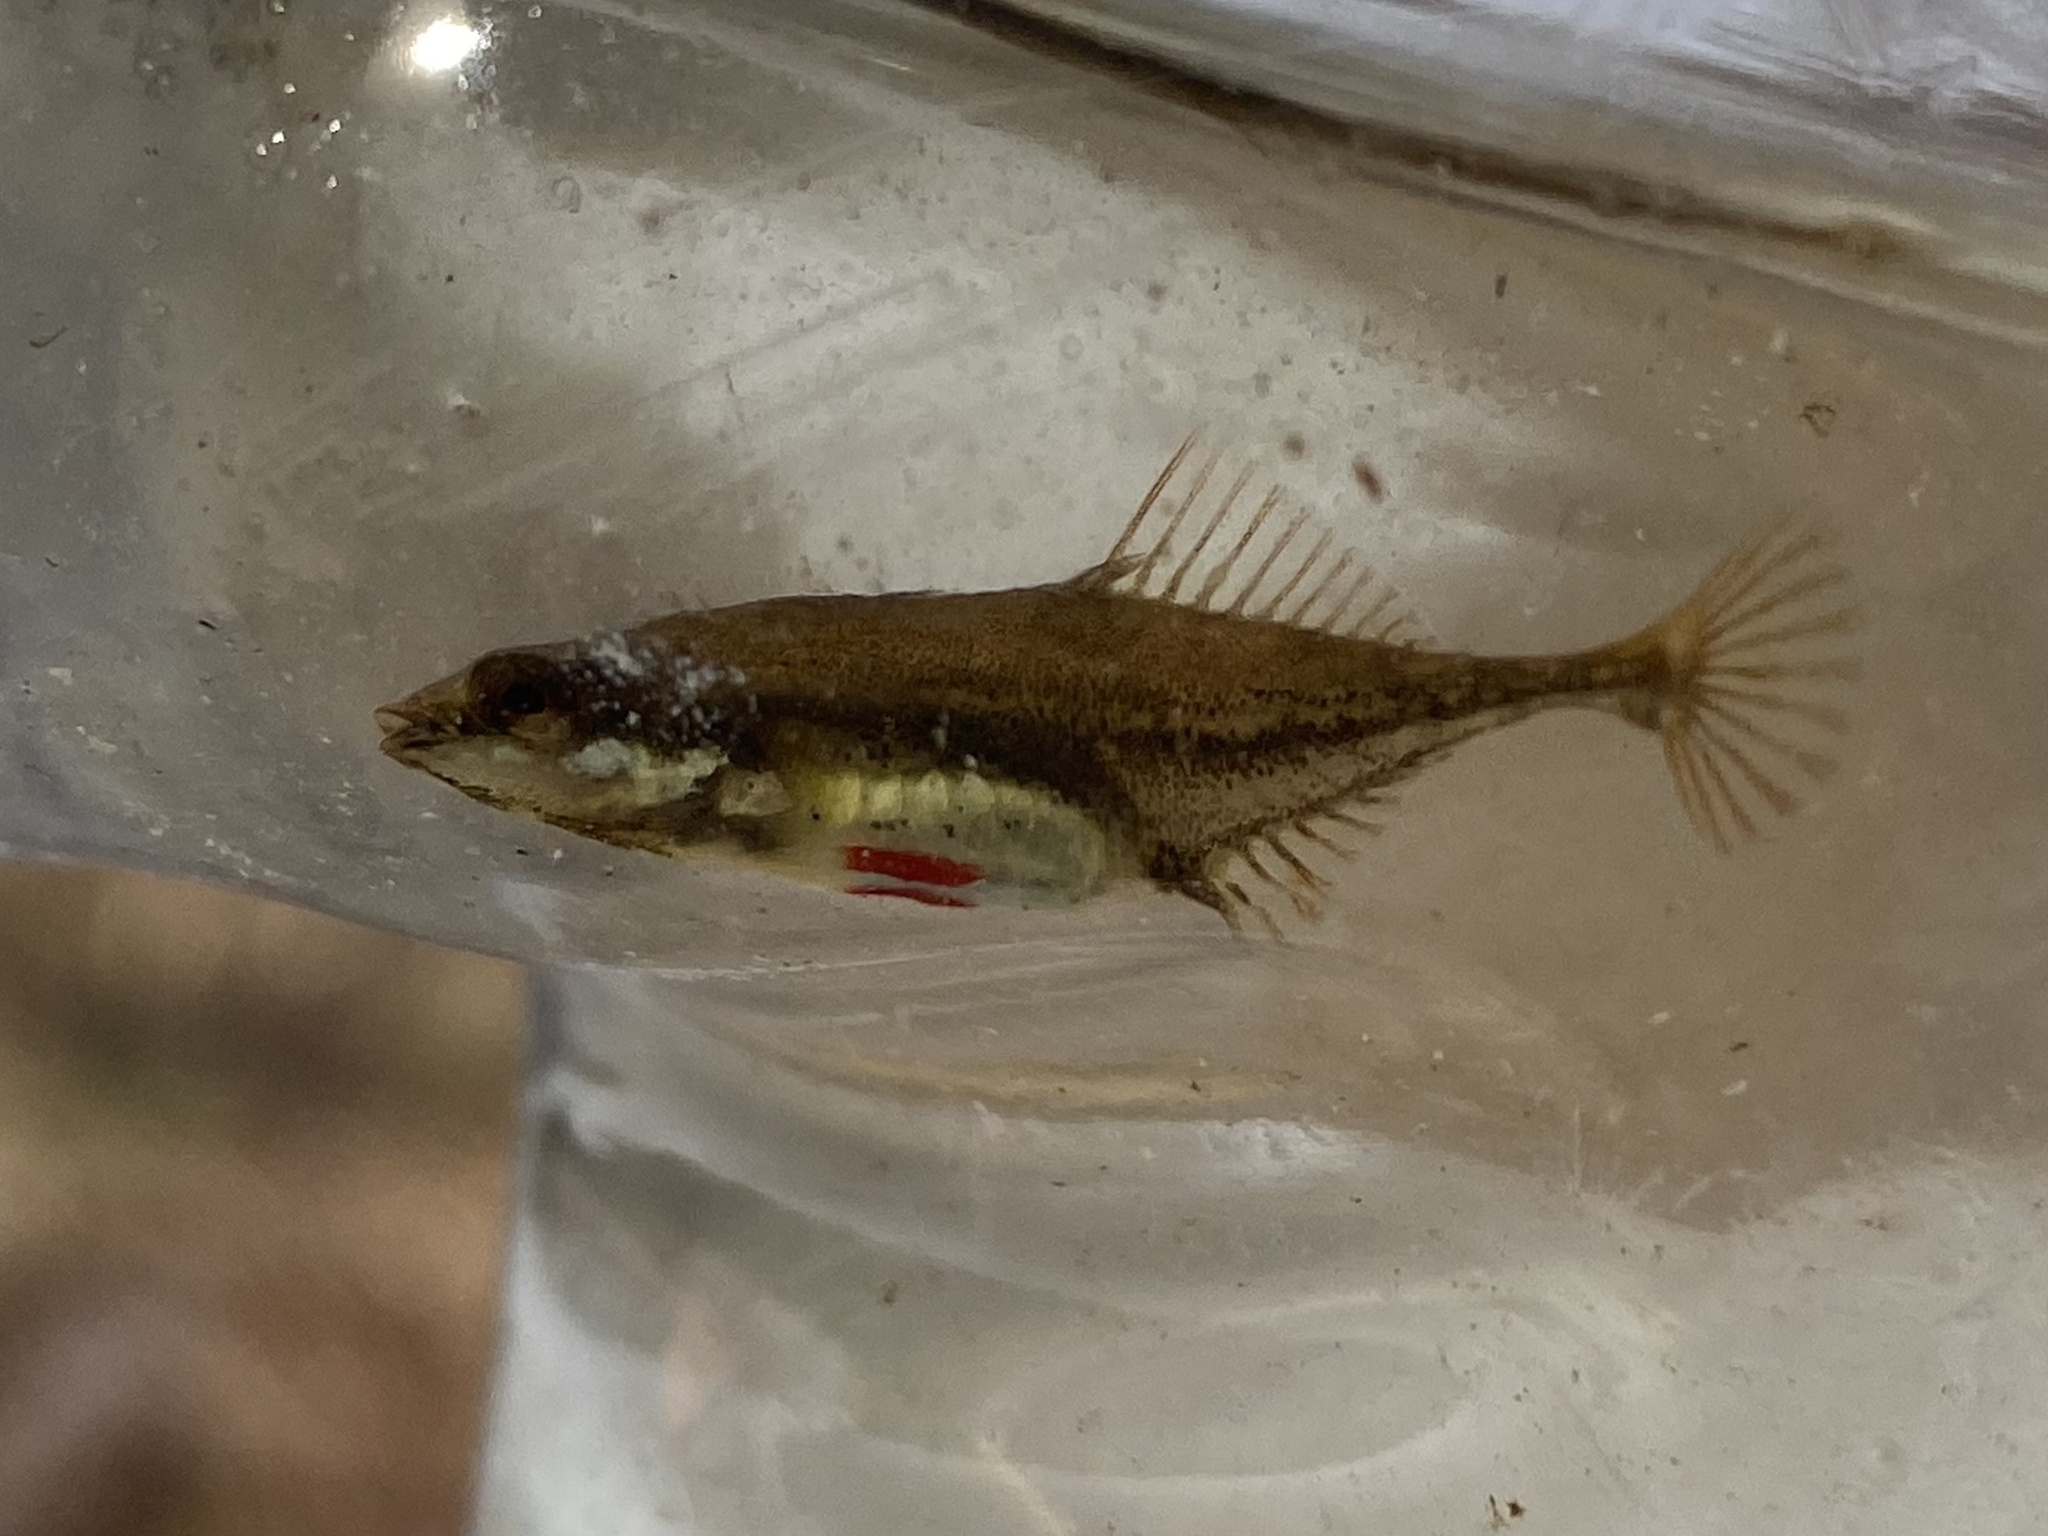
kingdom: Animalia
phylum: Chordata
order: Gasterosteiformes
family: Gasterosteidae
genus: Apeltes
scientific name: Apeltes quadracus
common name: Fourspine stickleback
